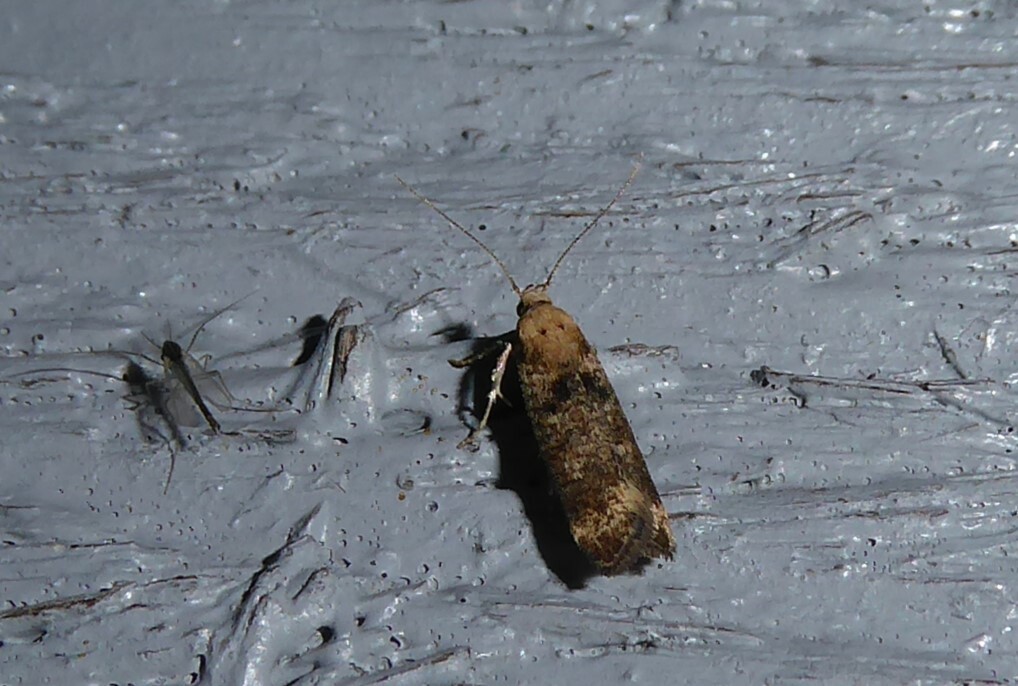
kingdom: Animalia
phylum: Arthropoda
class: Insecta
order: Lepidoptera
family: Gelechiidae
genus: Anisoplaca
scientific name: Anisoplaca acrodactyla
